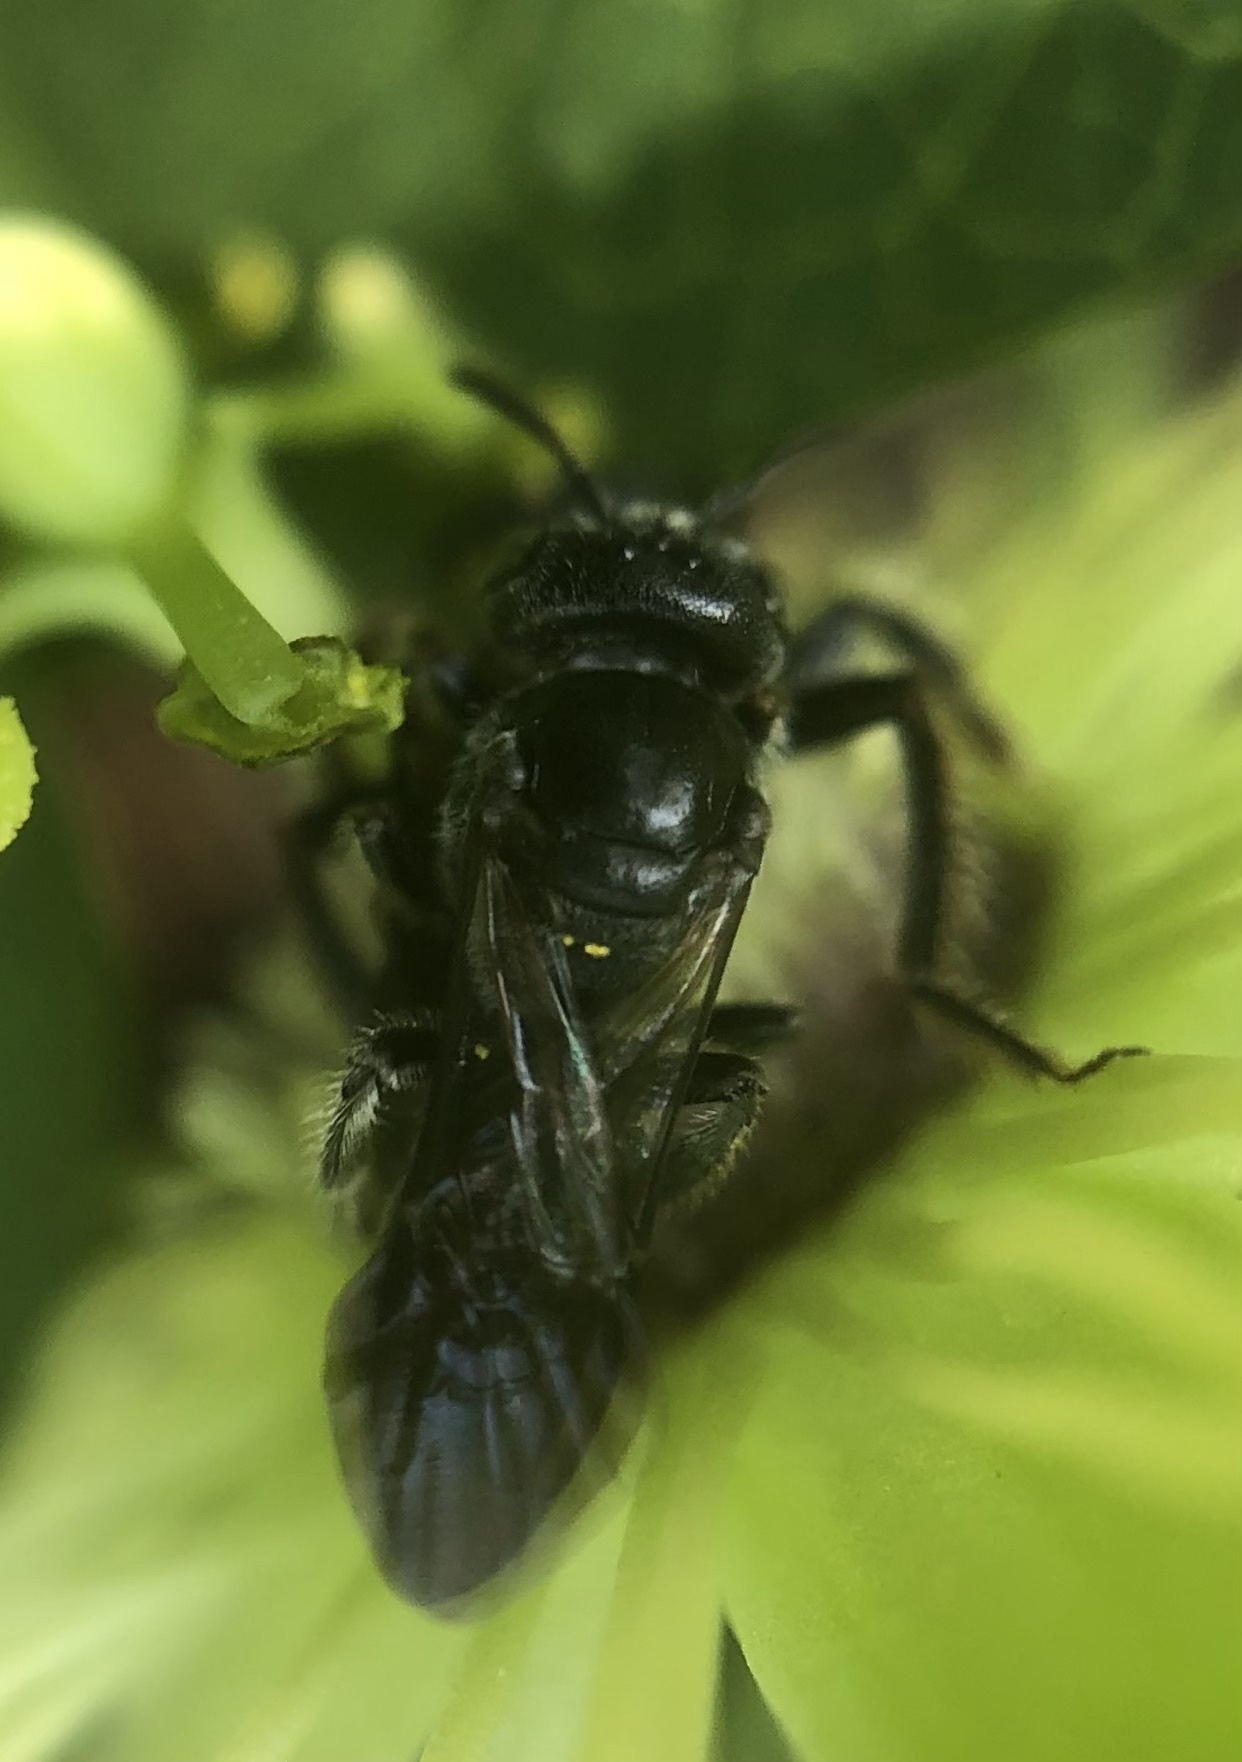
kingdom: Animalia
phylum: Arthropoda
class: Insecta
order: Hymenoptera
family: Andrenidae
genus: Protandrena
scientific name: Protandrena
